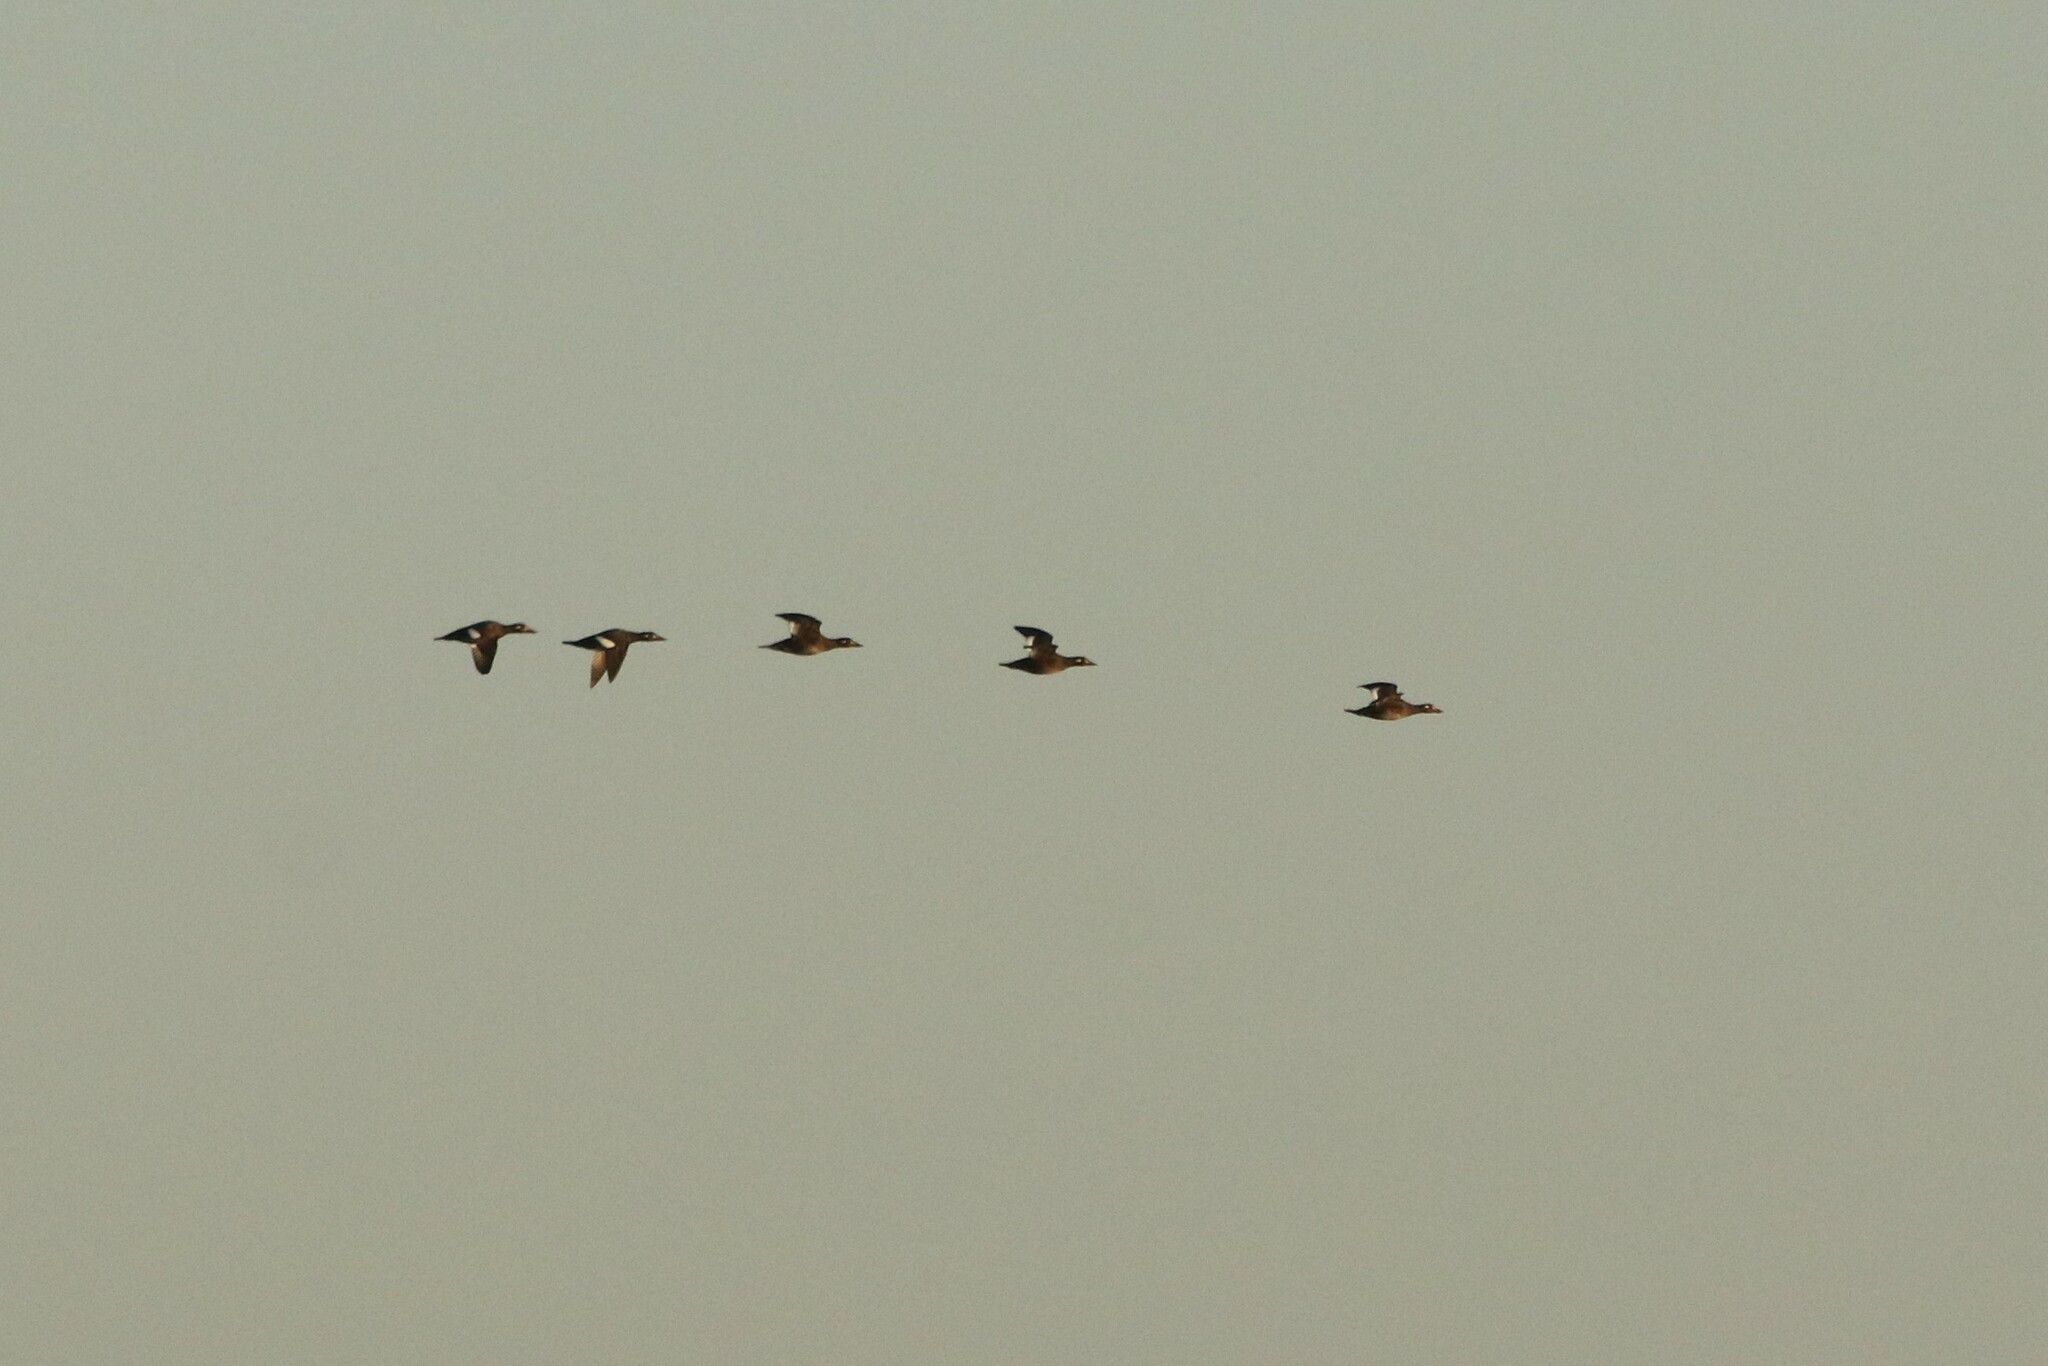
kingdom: Animalia
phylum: Chordata
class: Aves
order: Anseriformes
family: Anatidae
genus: Melanitta
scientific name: Melanitta deglandi
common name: White-winged scoter
